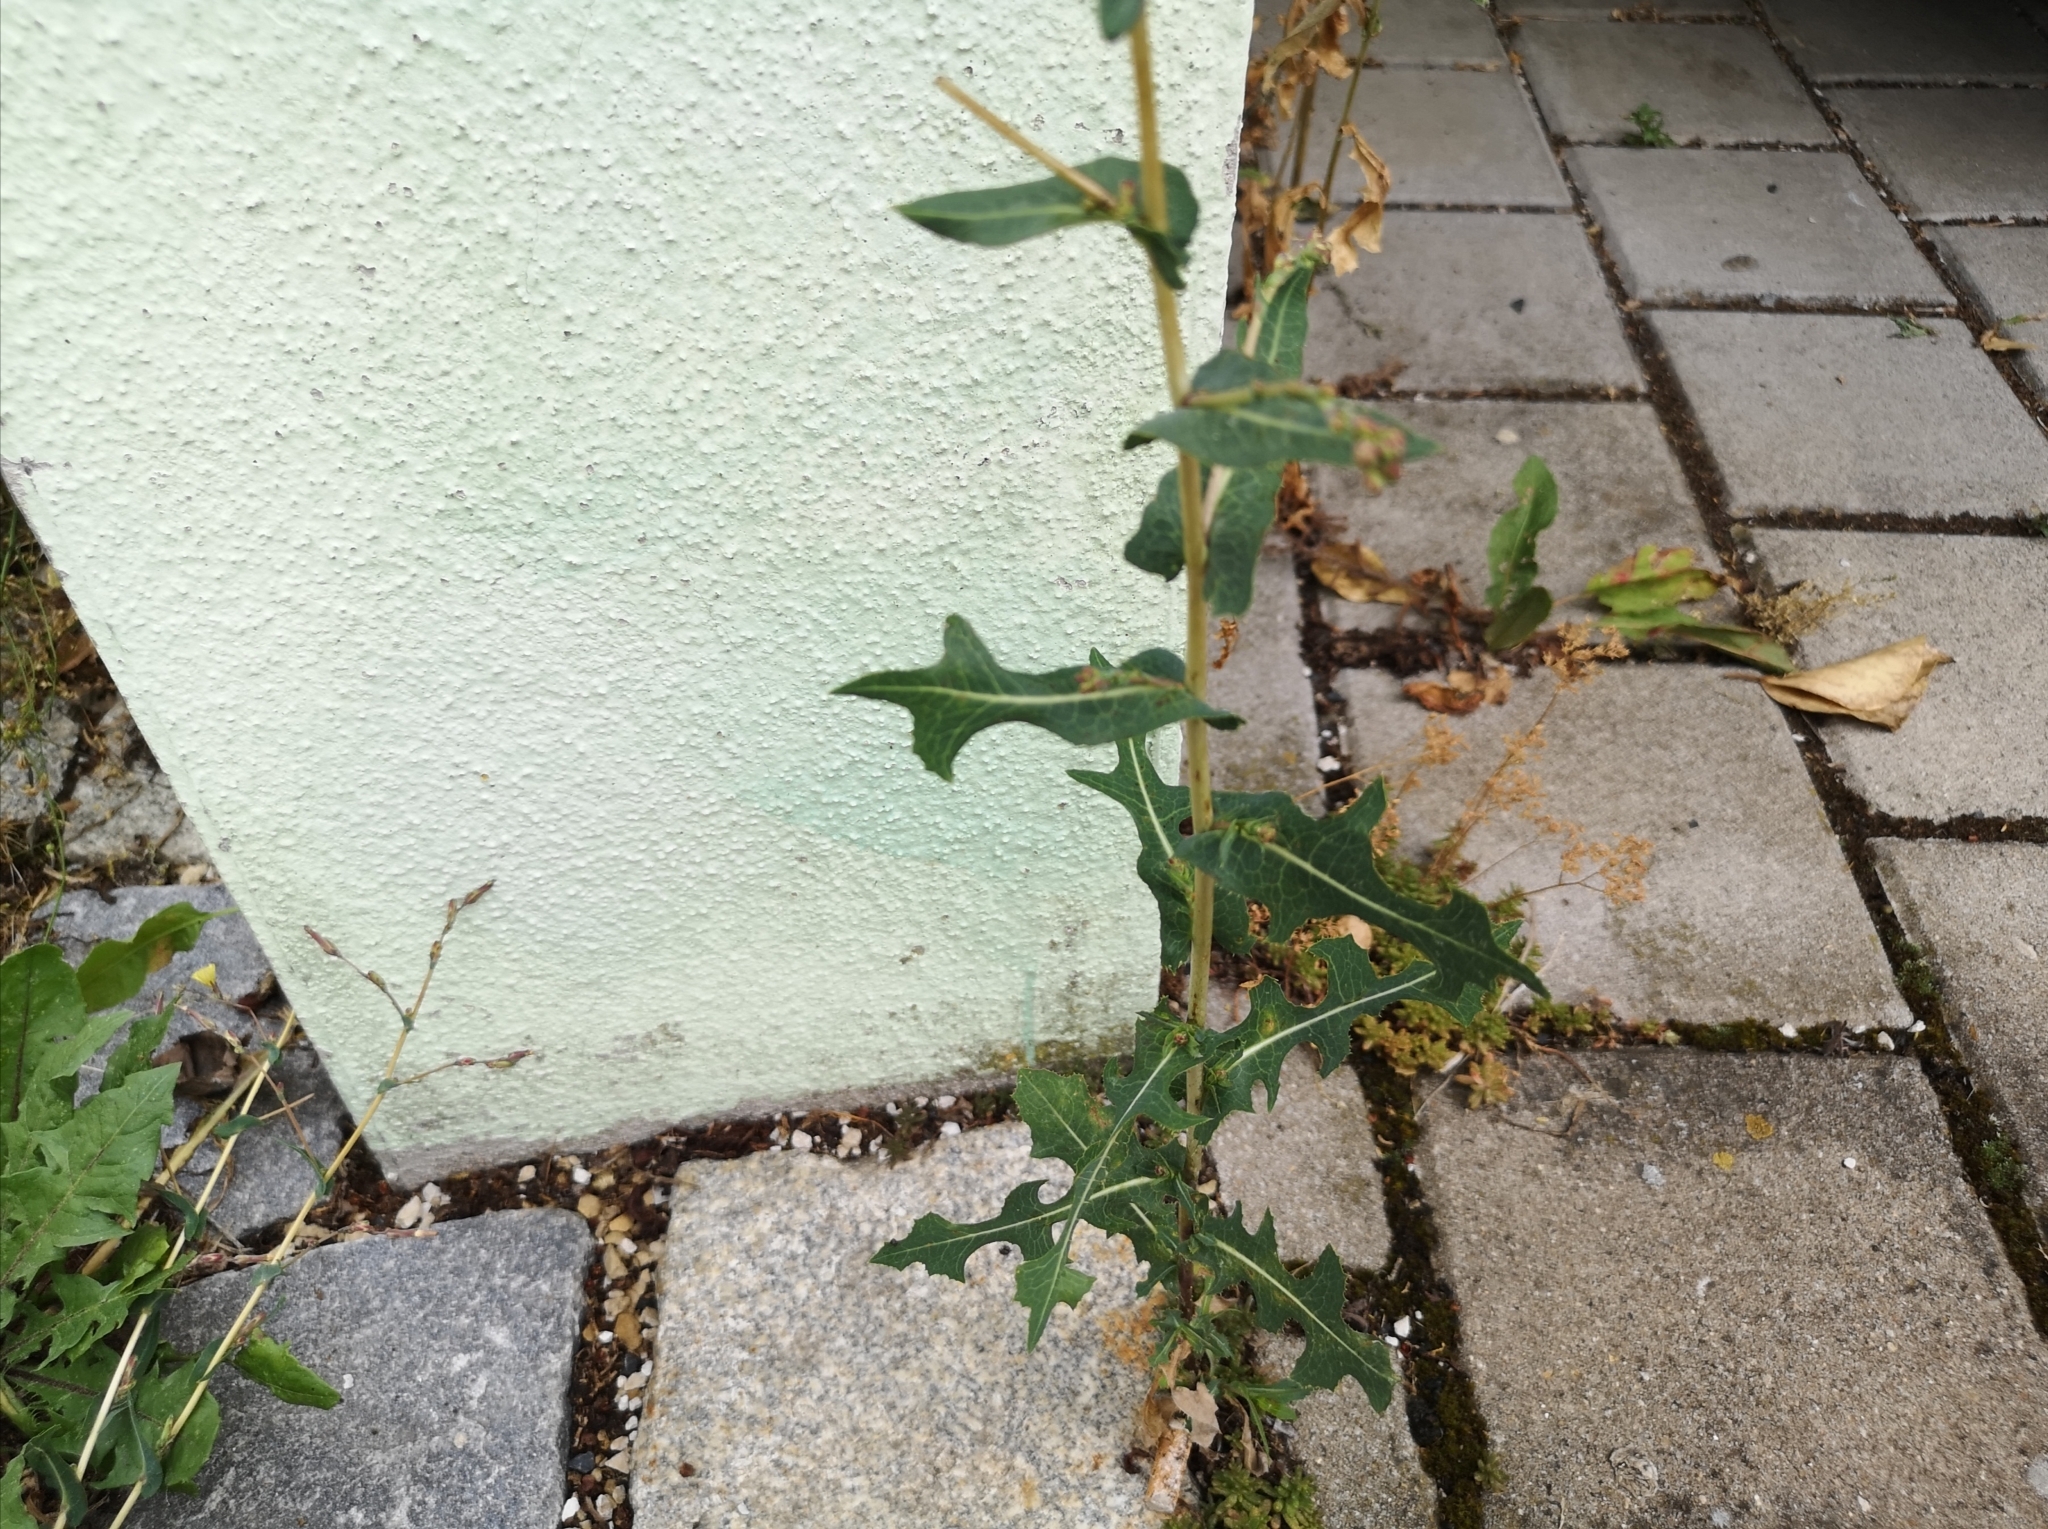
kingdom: Plantae
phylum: Tracheophyta
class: Magnoliopsida
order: Asterales
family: Asteraceae
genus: Lactuca
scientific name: Lactuca serriola
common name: Prickly lettuce
